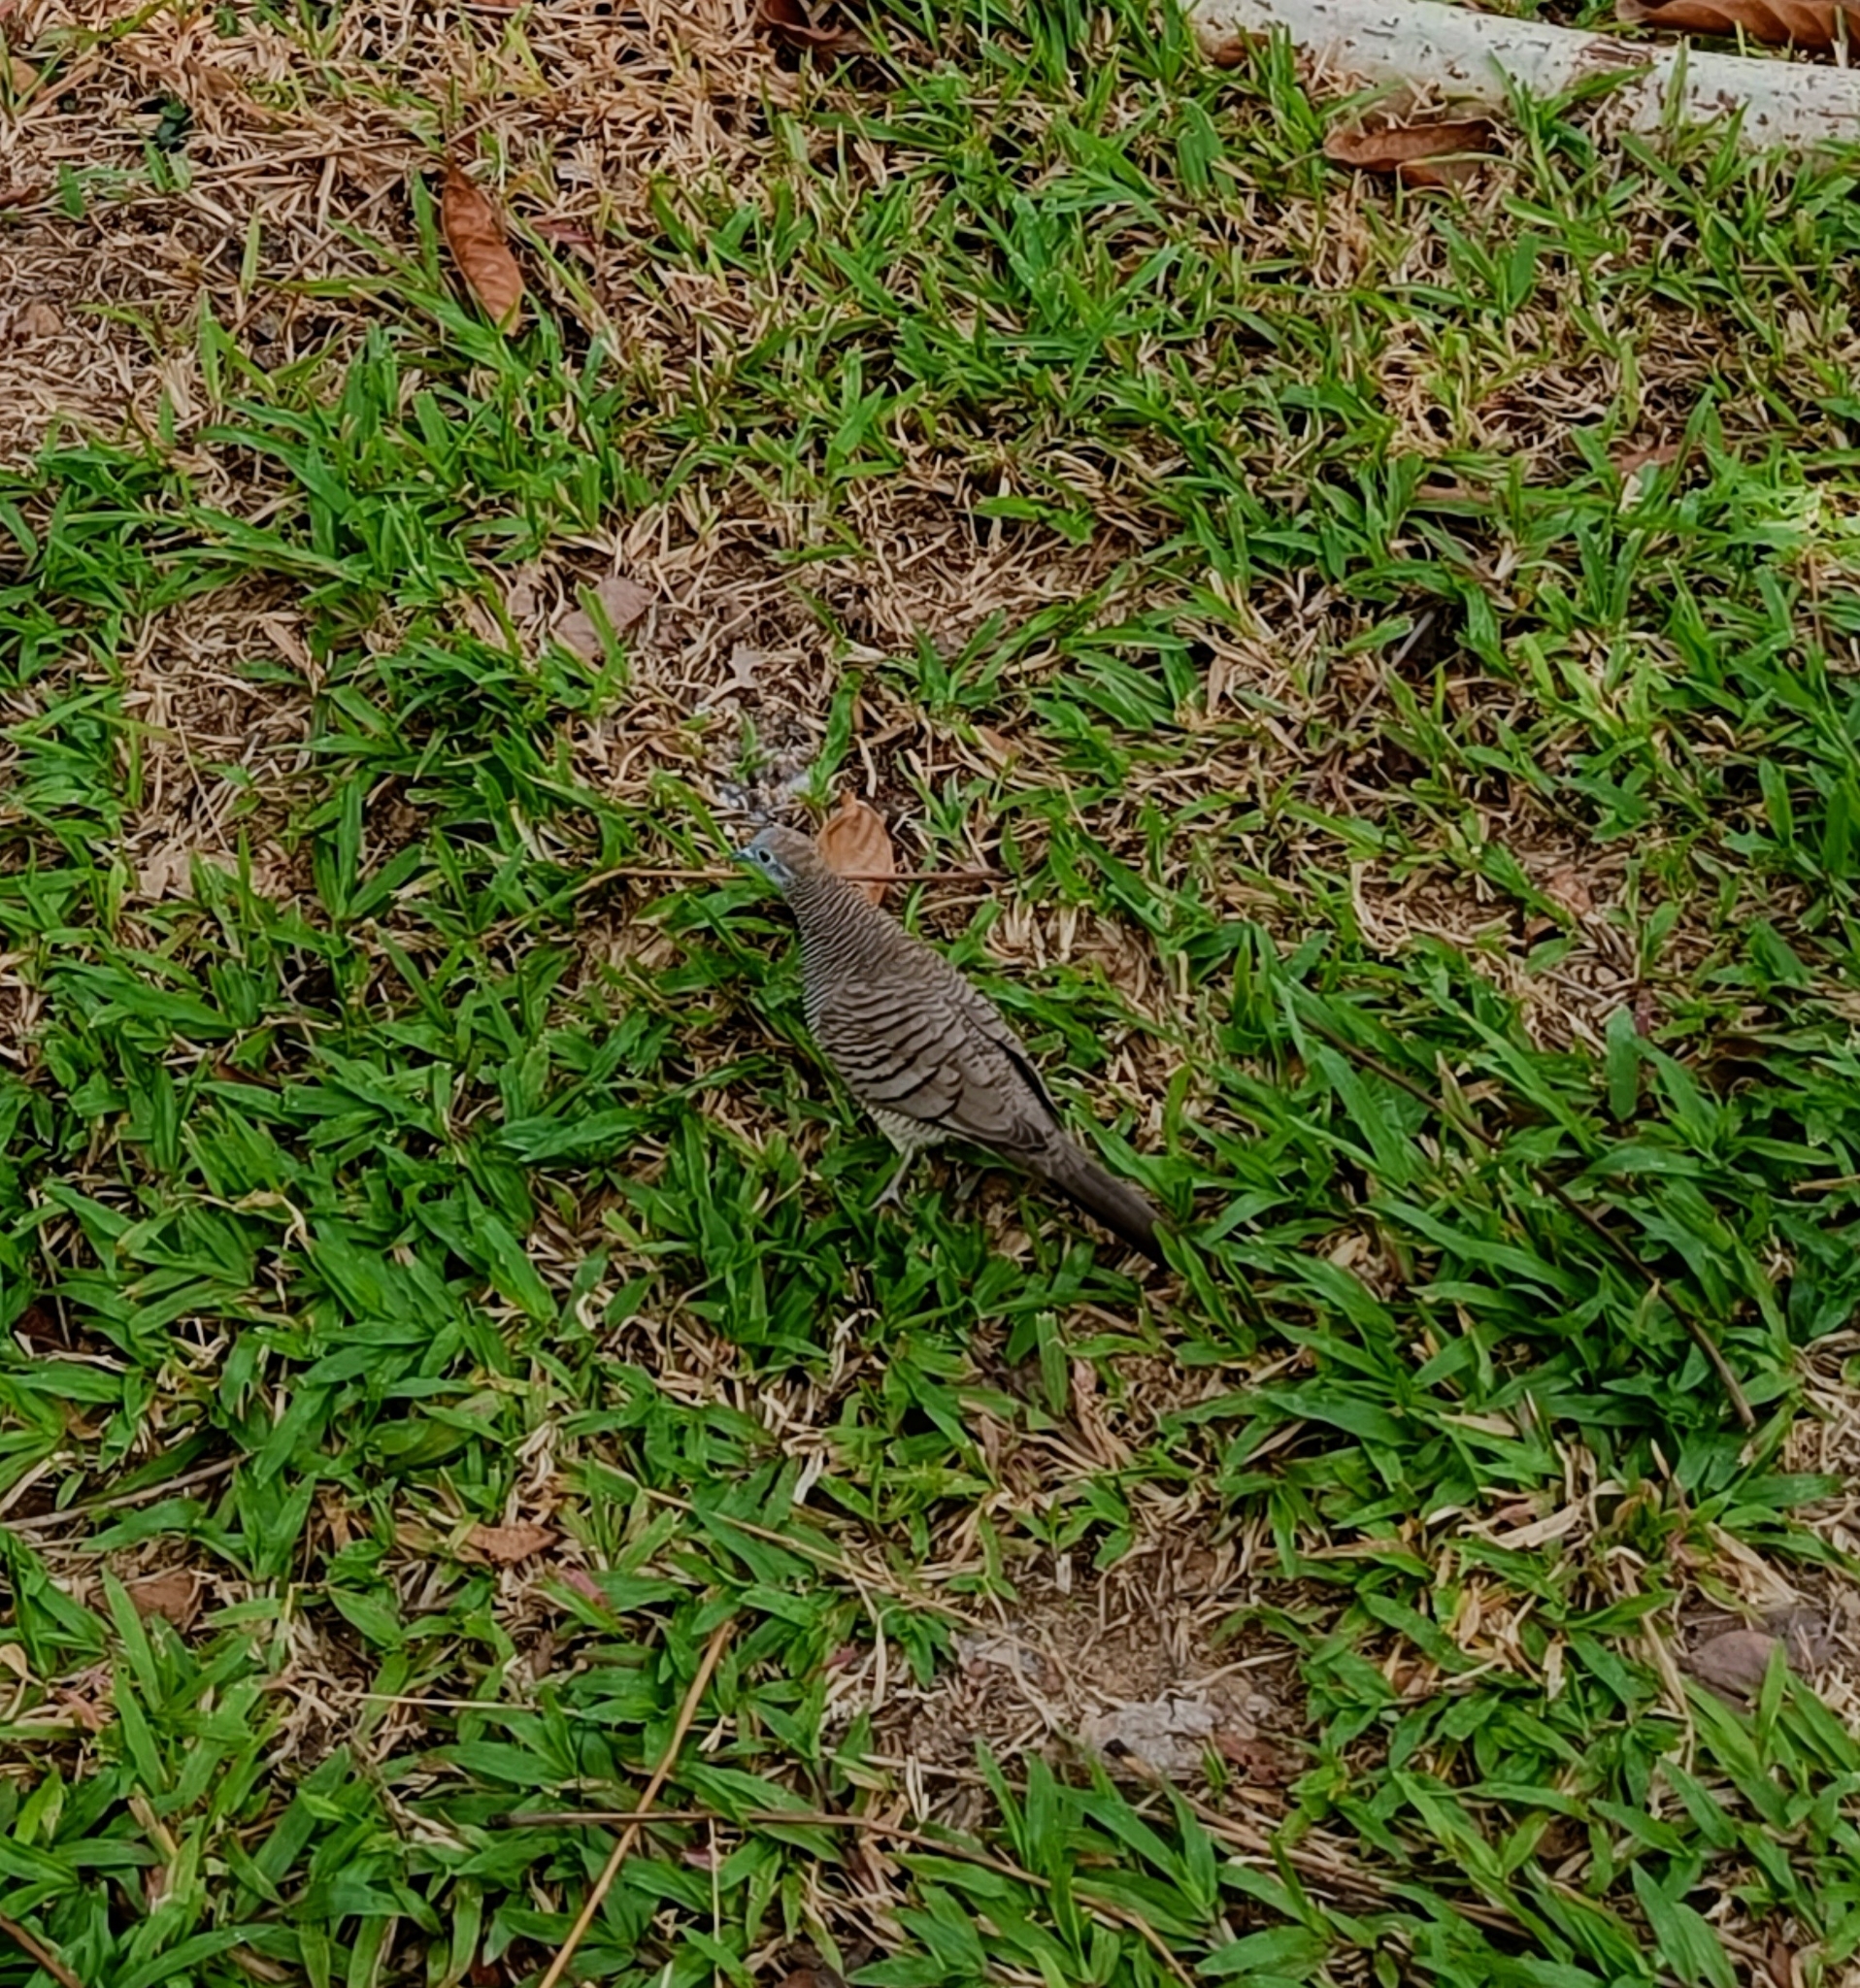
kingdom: Animalia
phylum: Chordata
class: Aves
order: Columbiformes
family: Columbidae
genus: Geopelia
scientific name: Geopelia striata
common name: Zebra dove
